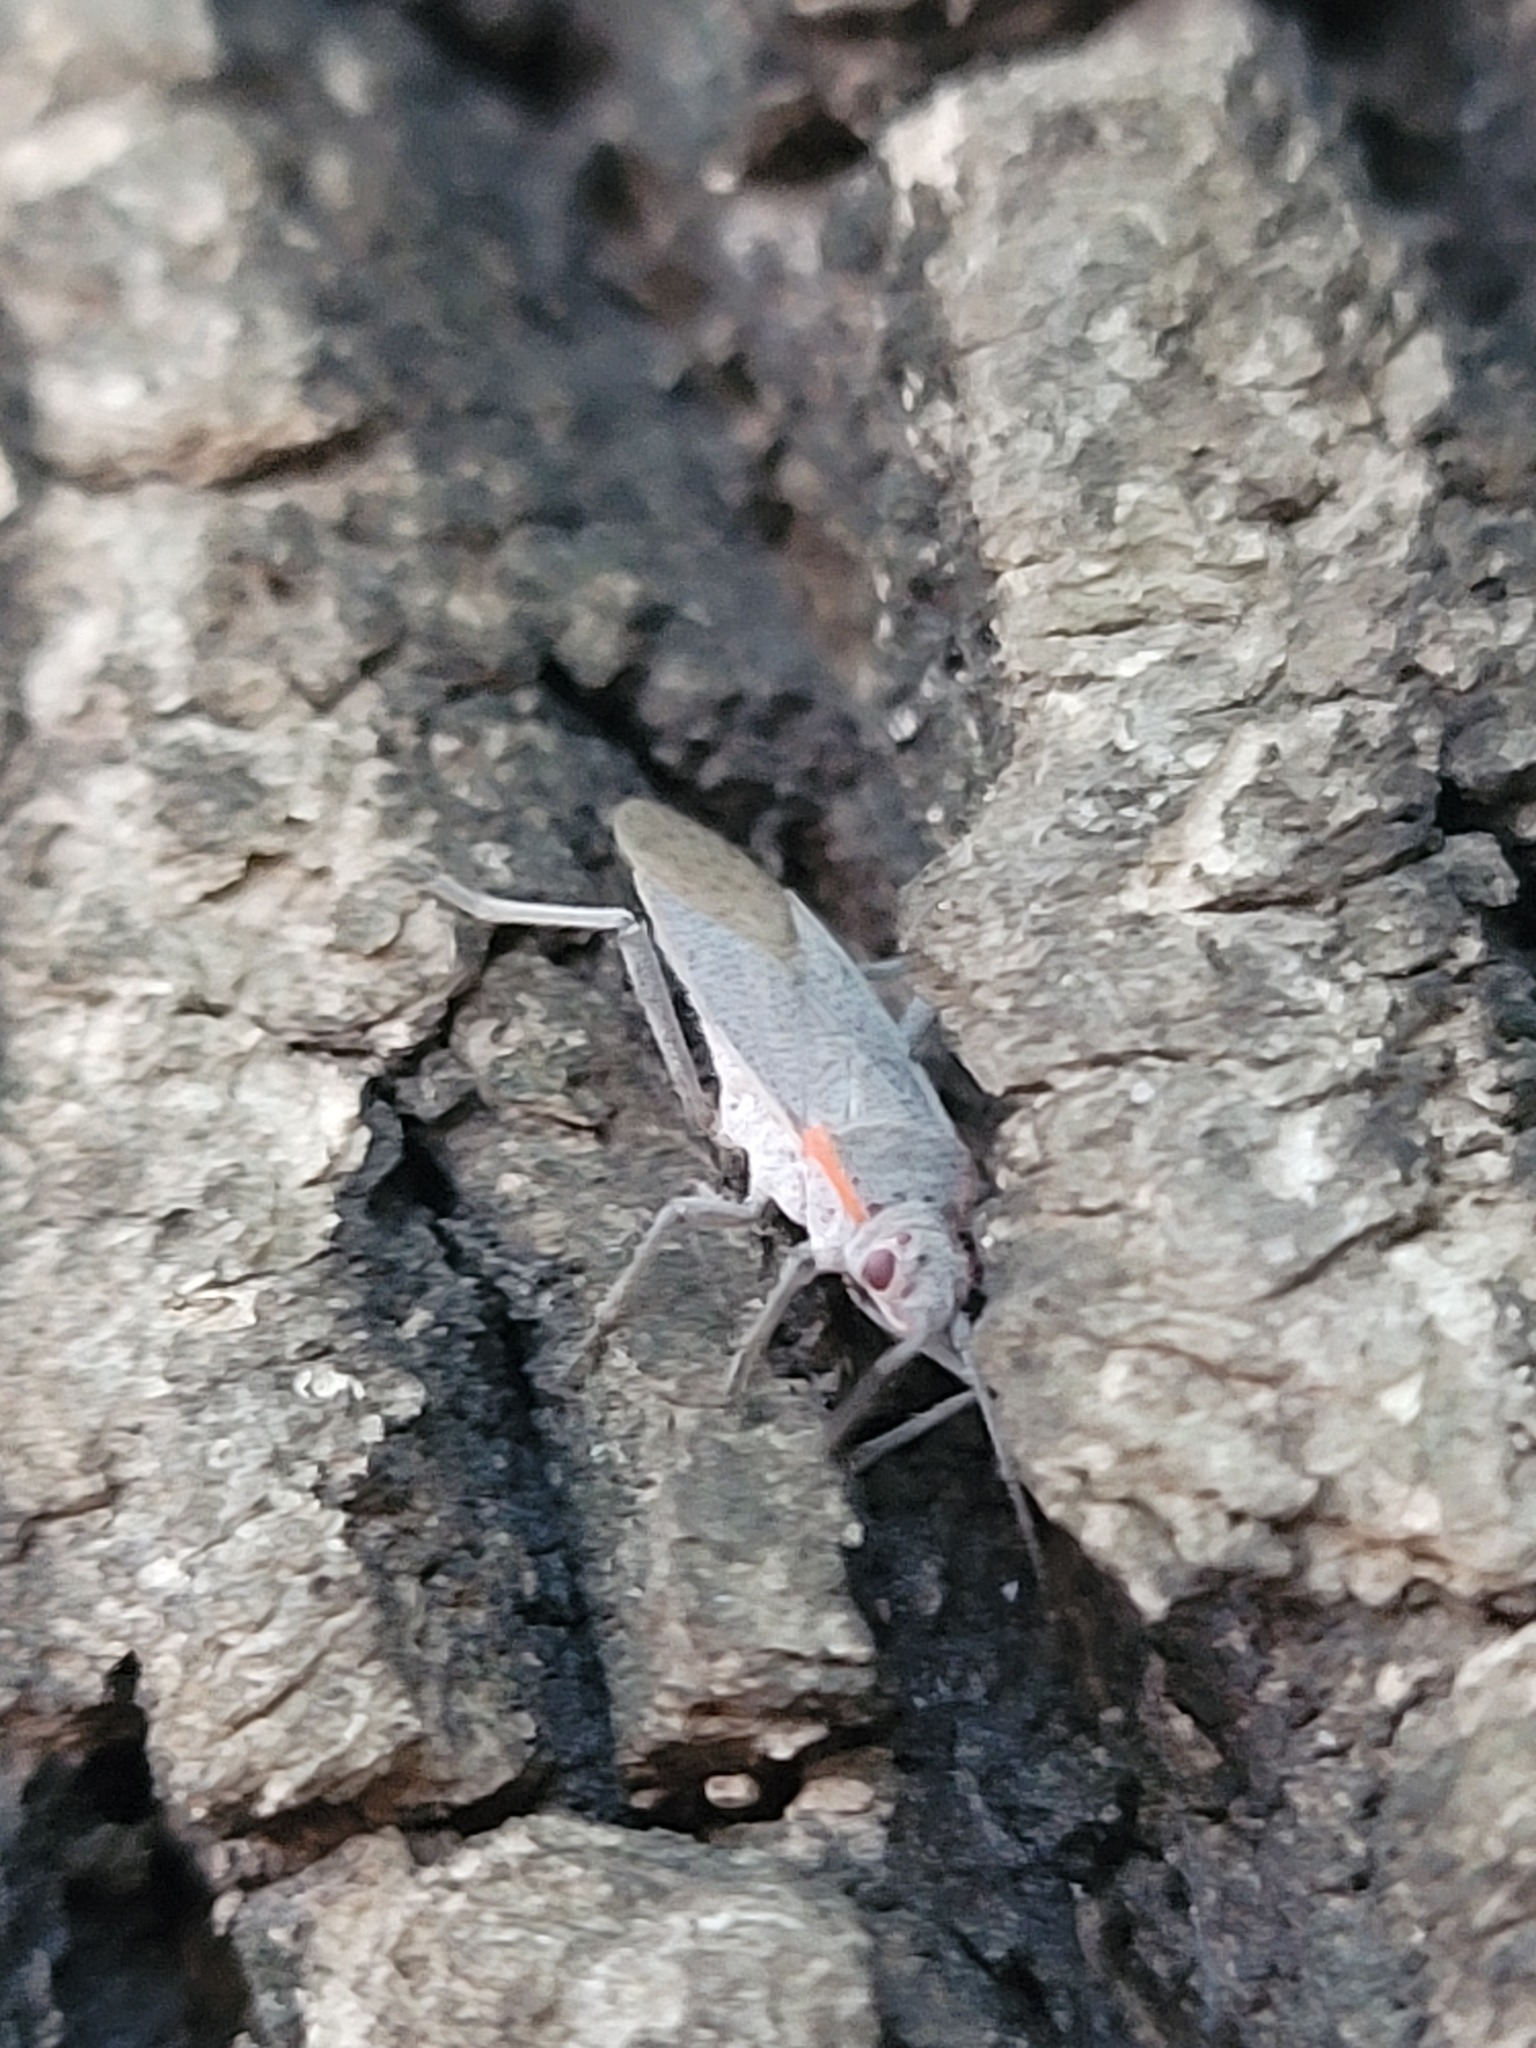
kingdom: Animalia
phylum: Arthropoda
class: Insecta
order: Hemiptera
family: Rhopalidae
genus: Jadera
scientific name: Jadera hinnulea
